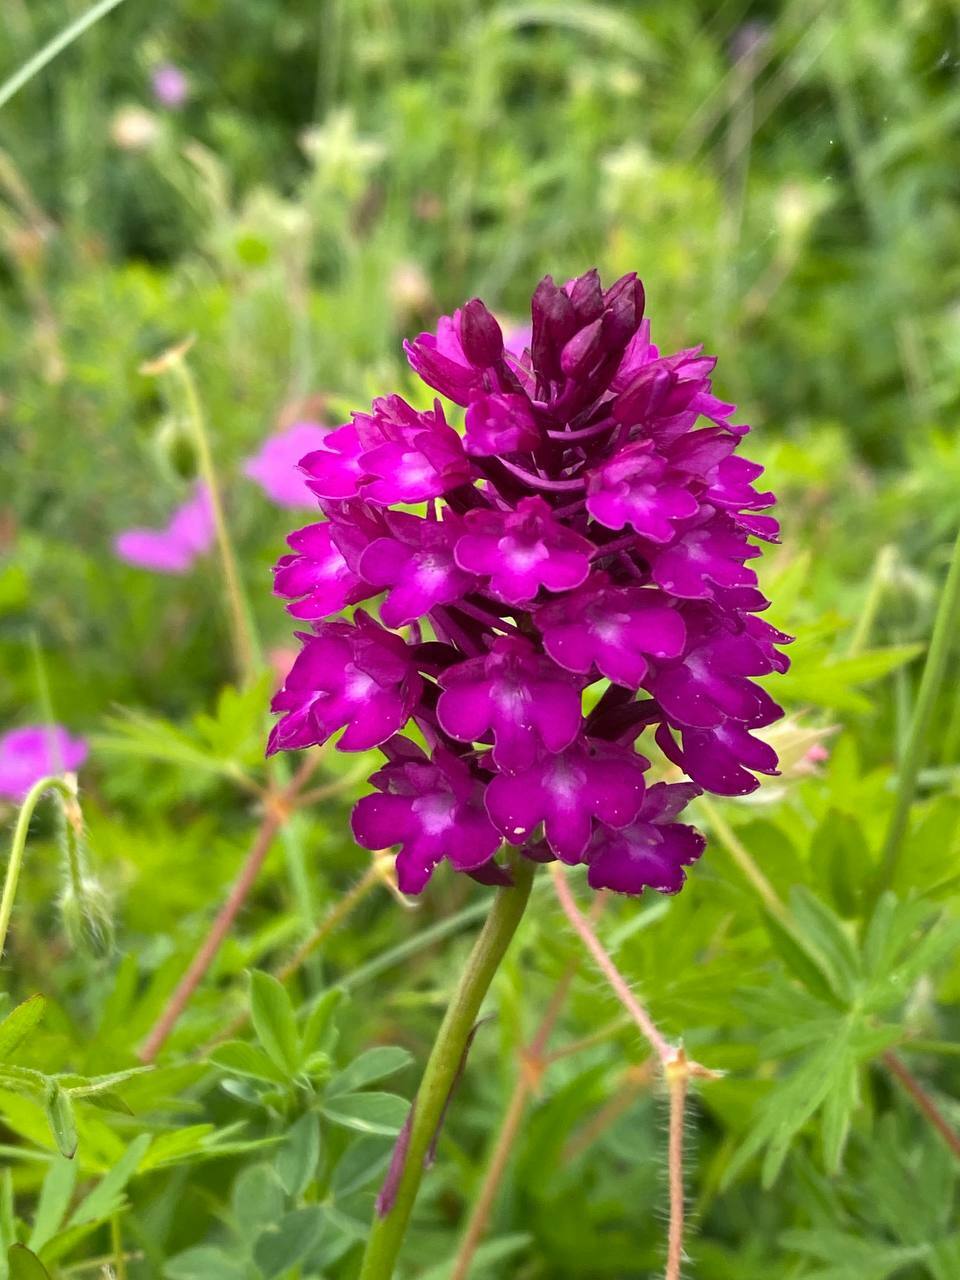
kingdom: Plantae
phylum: Tracheophyta
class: Liliopsida
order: Asparagales
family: Orchidaceae
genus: Anacamptis
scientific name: Anacamptis pyramidalis
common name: Pyramidal orchid
